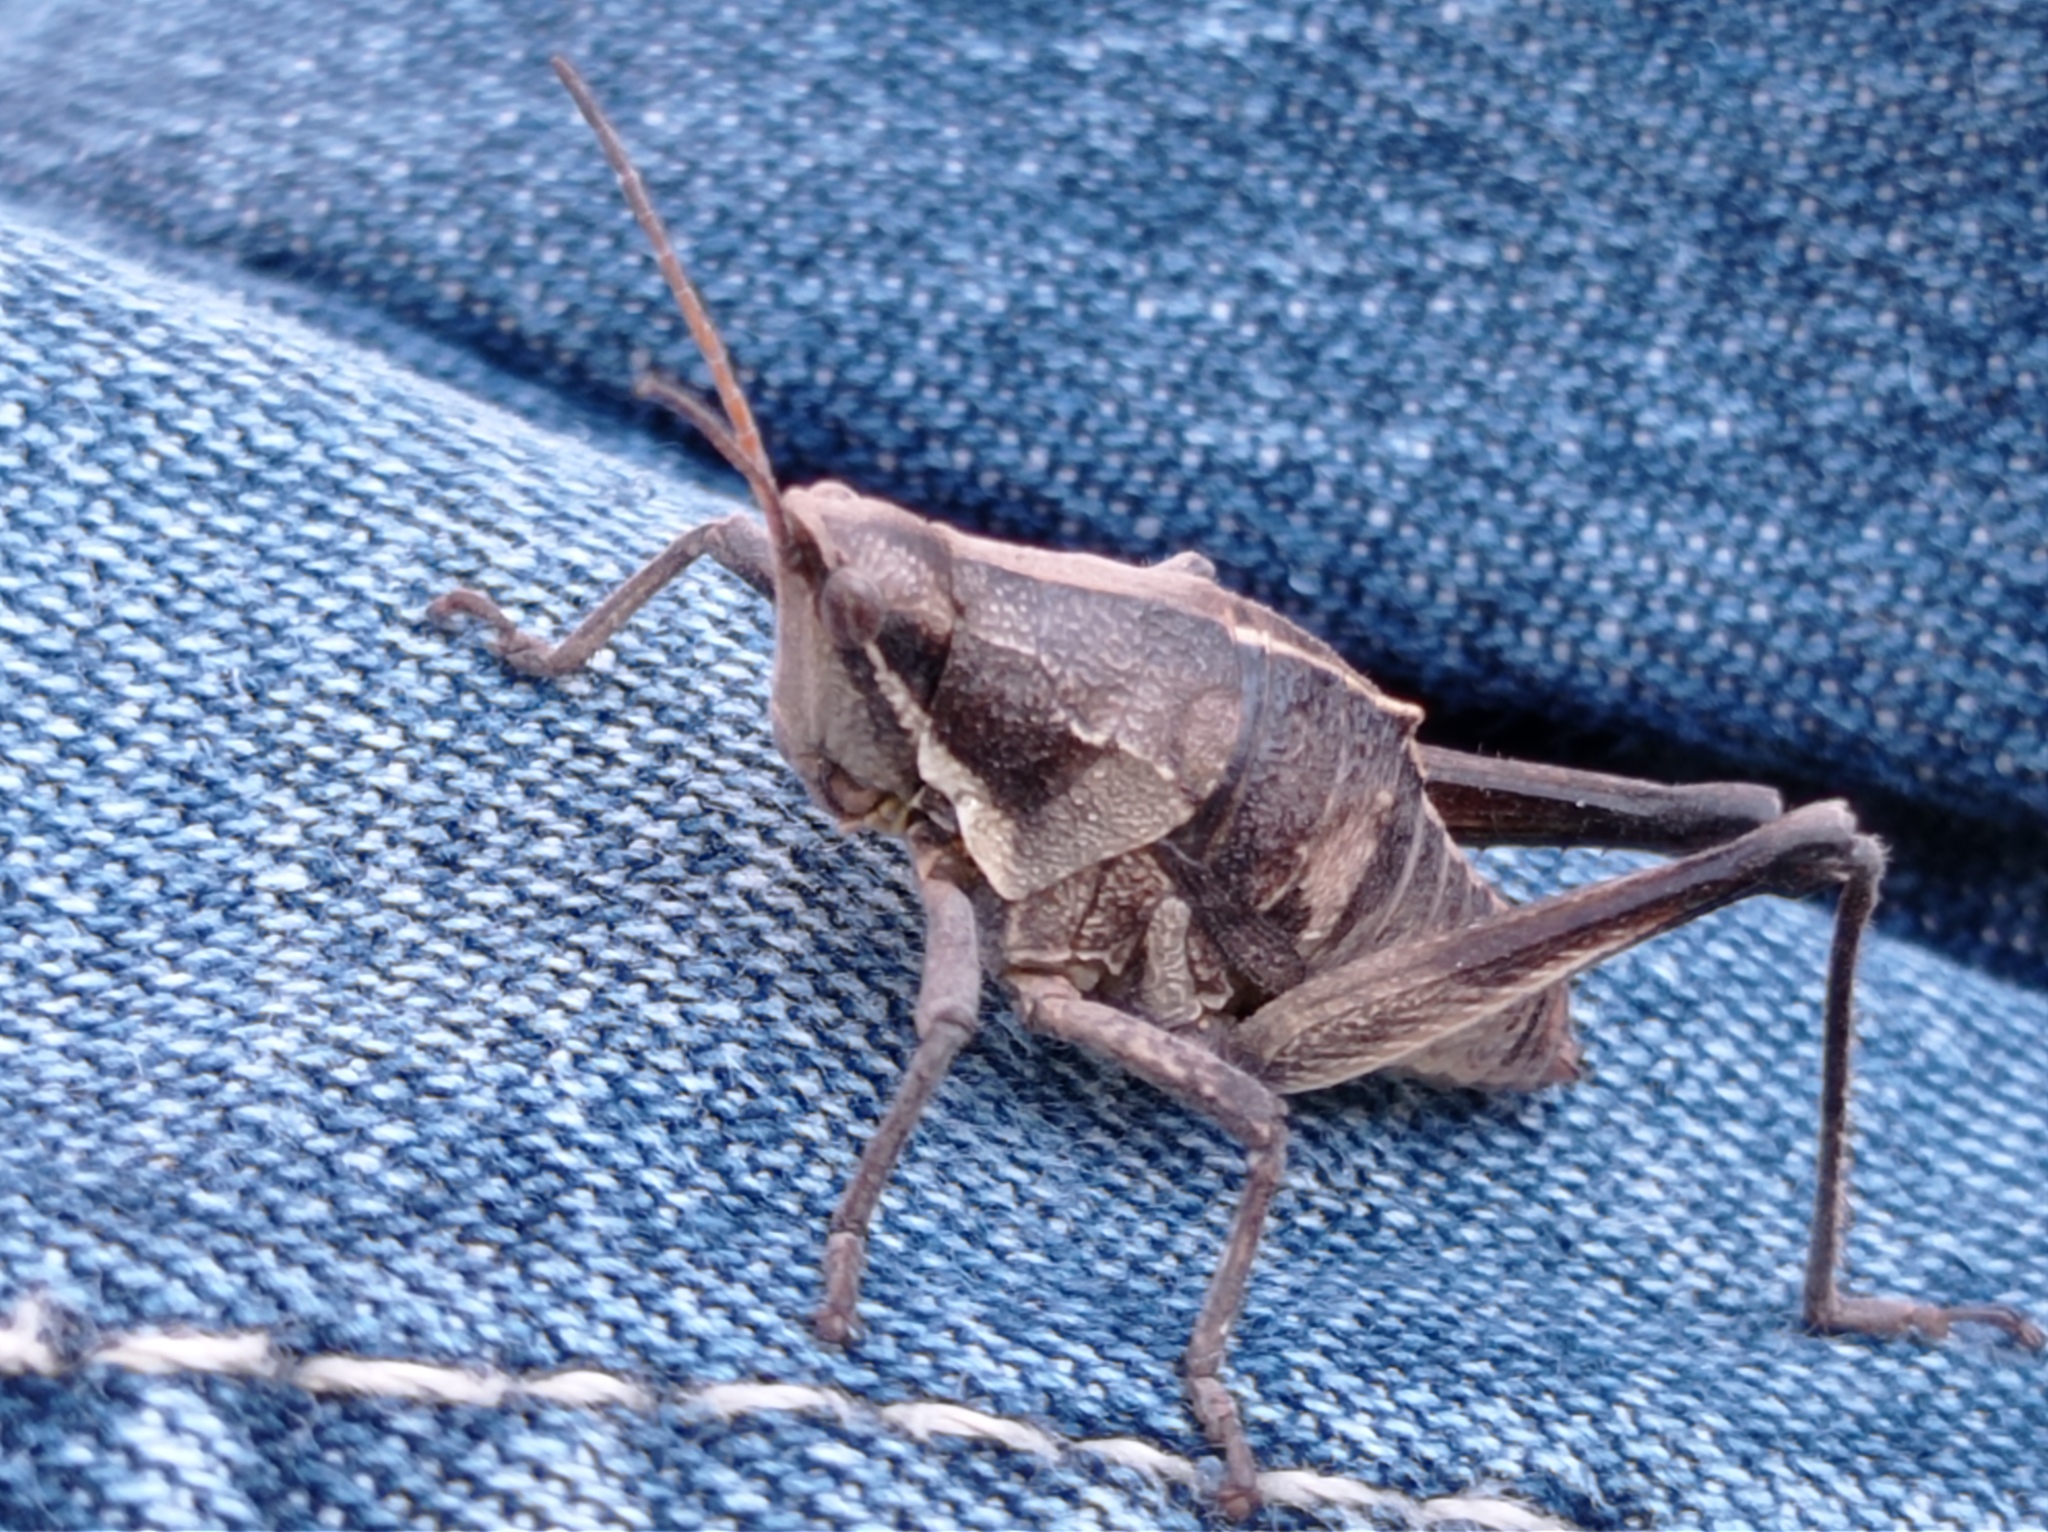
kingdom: Animalia
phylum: Arthropoda
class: Insecta
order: Orthoptera
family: Pyrgomorphidae
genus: Sphenarium
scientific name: Sphenarium purpurascens
